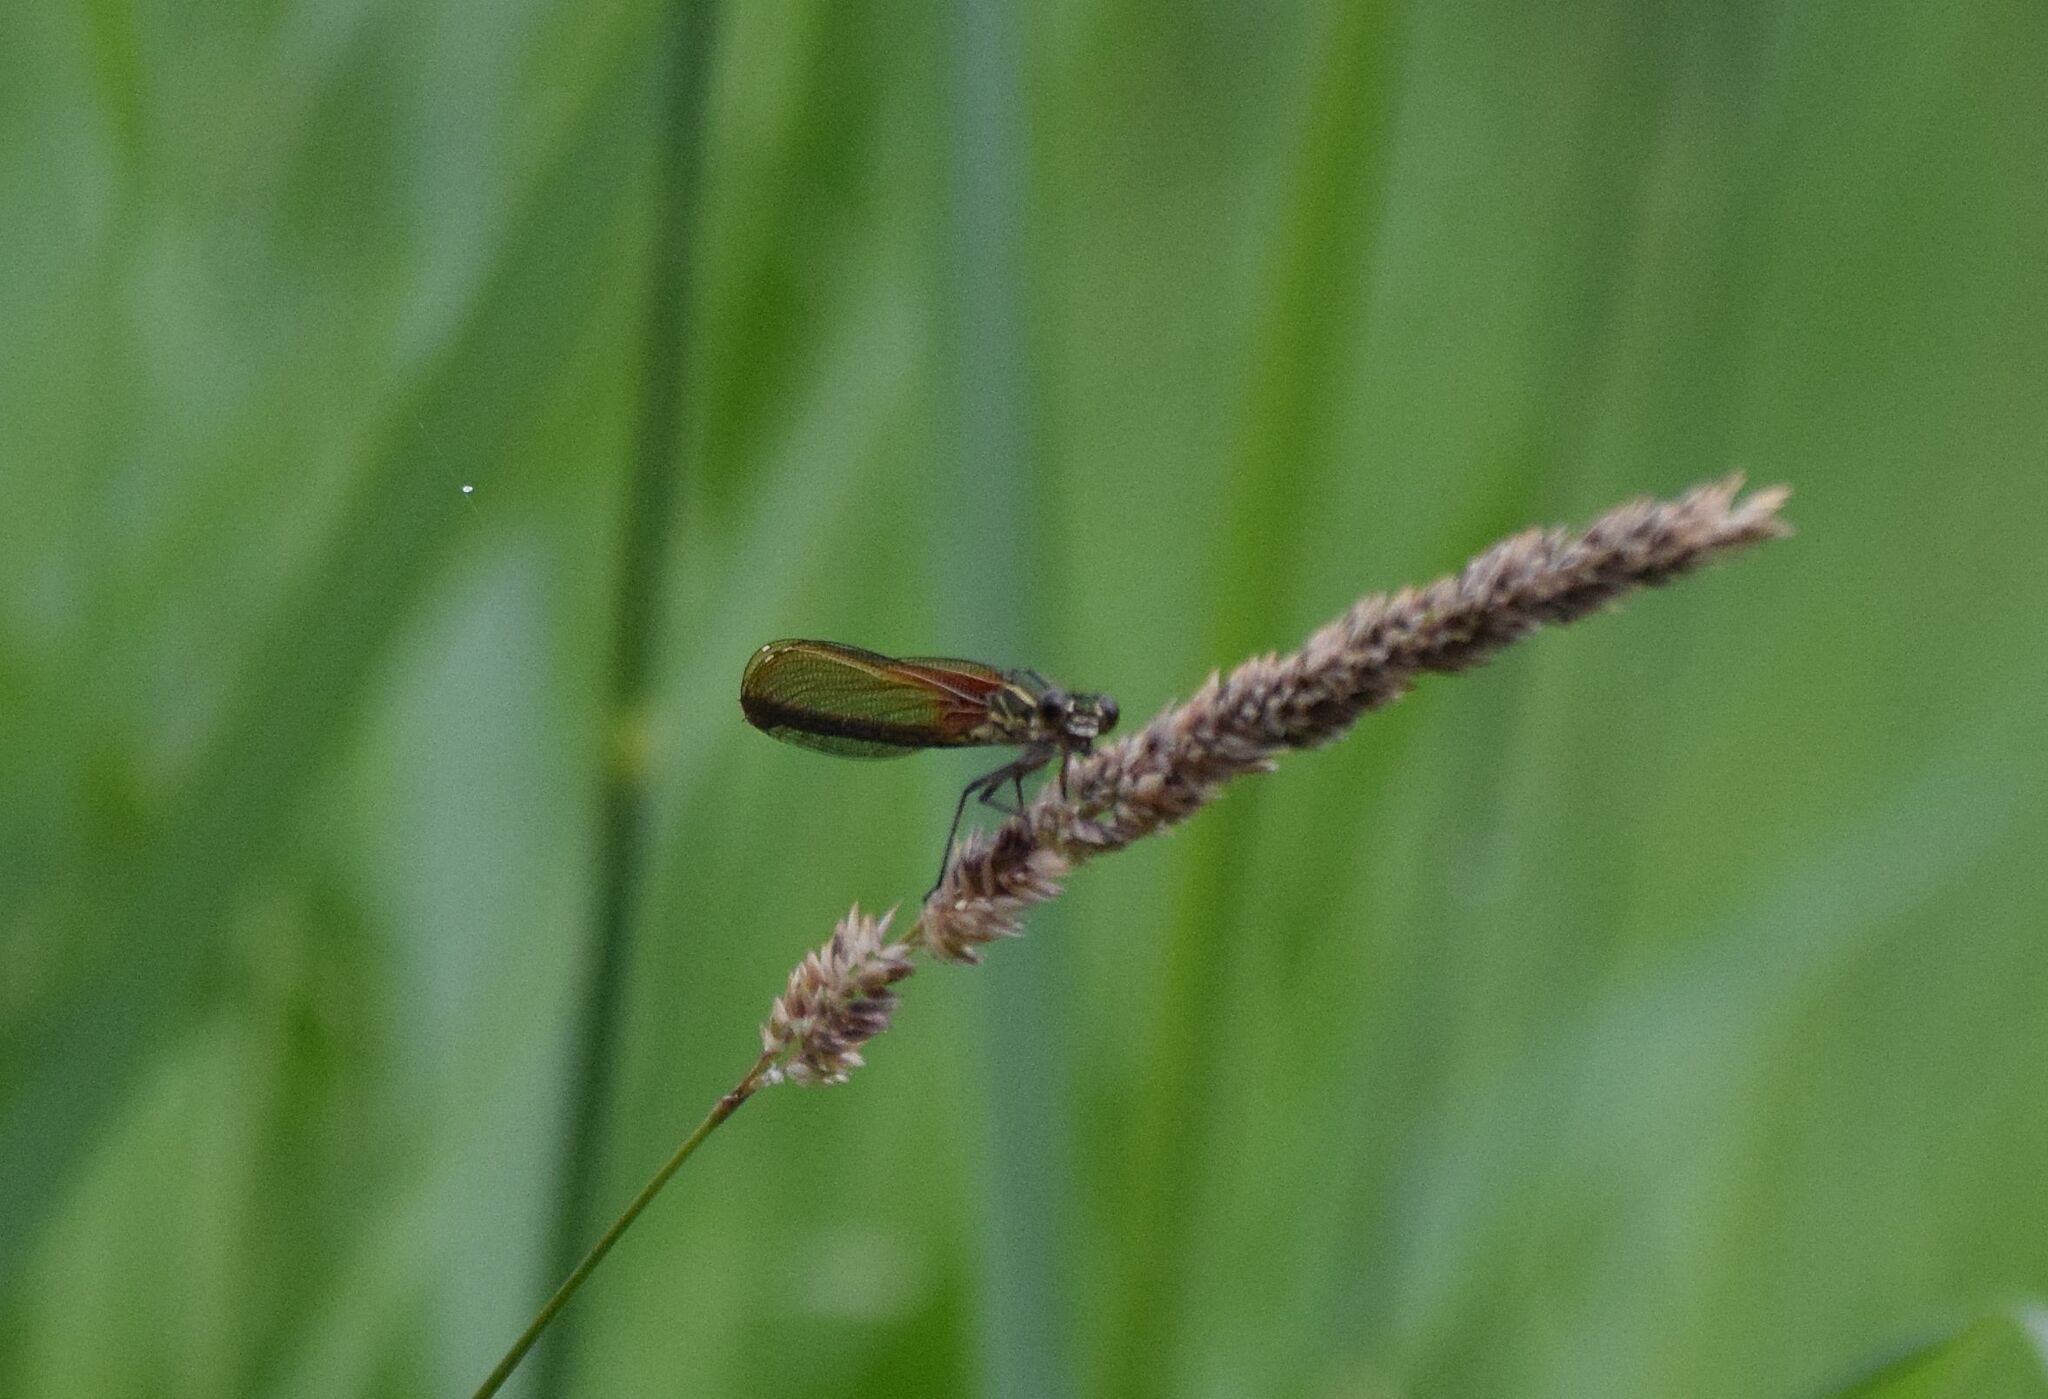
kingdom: Animalia
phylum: Arthropoda
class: Insecta
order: Odonata
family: Calopterygidae
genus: Hetaerina
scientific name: Hetaerina americana
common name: American rubyspot
